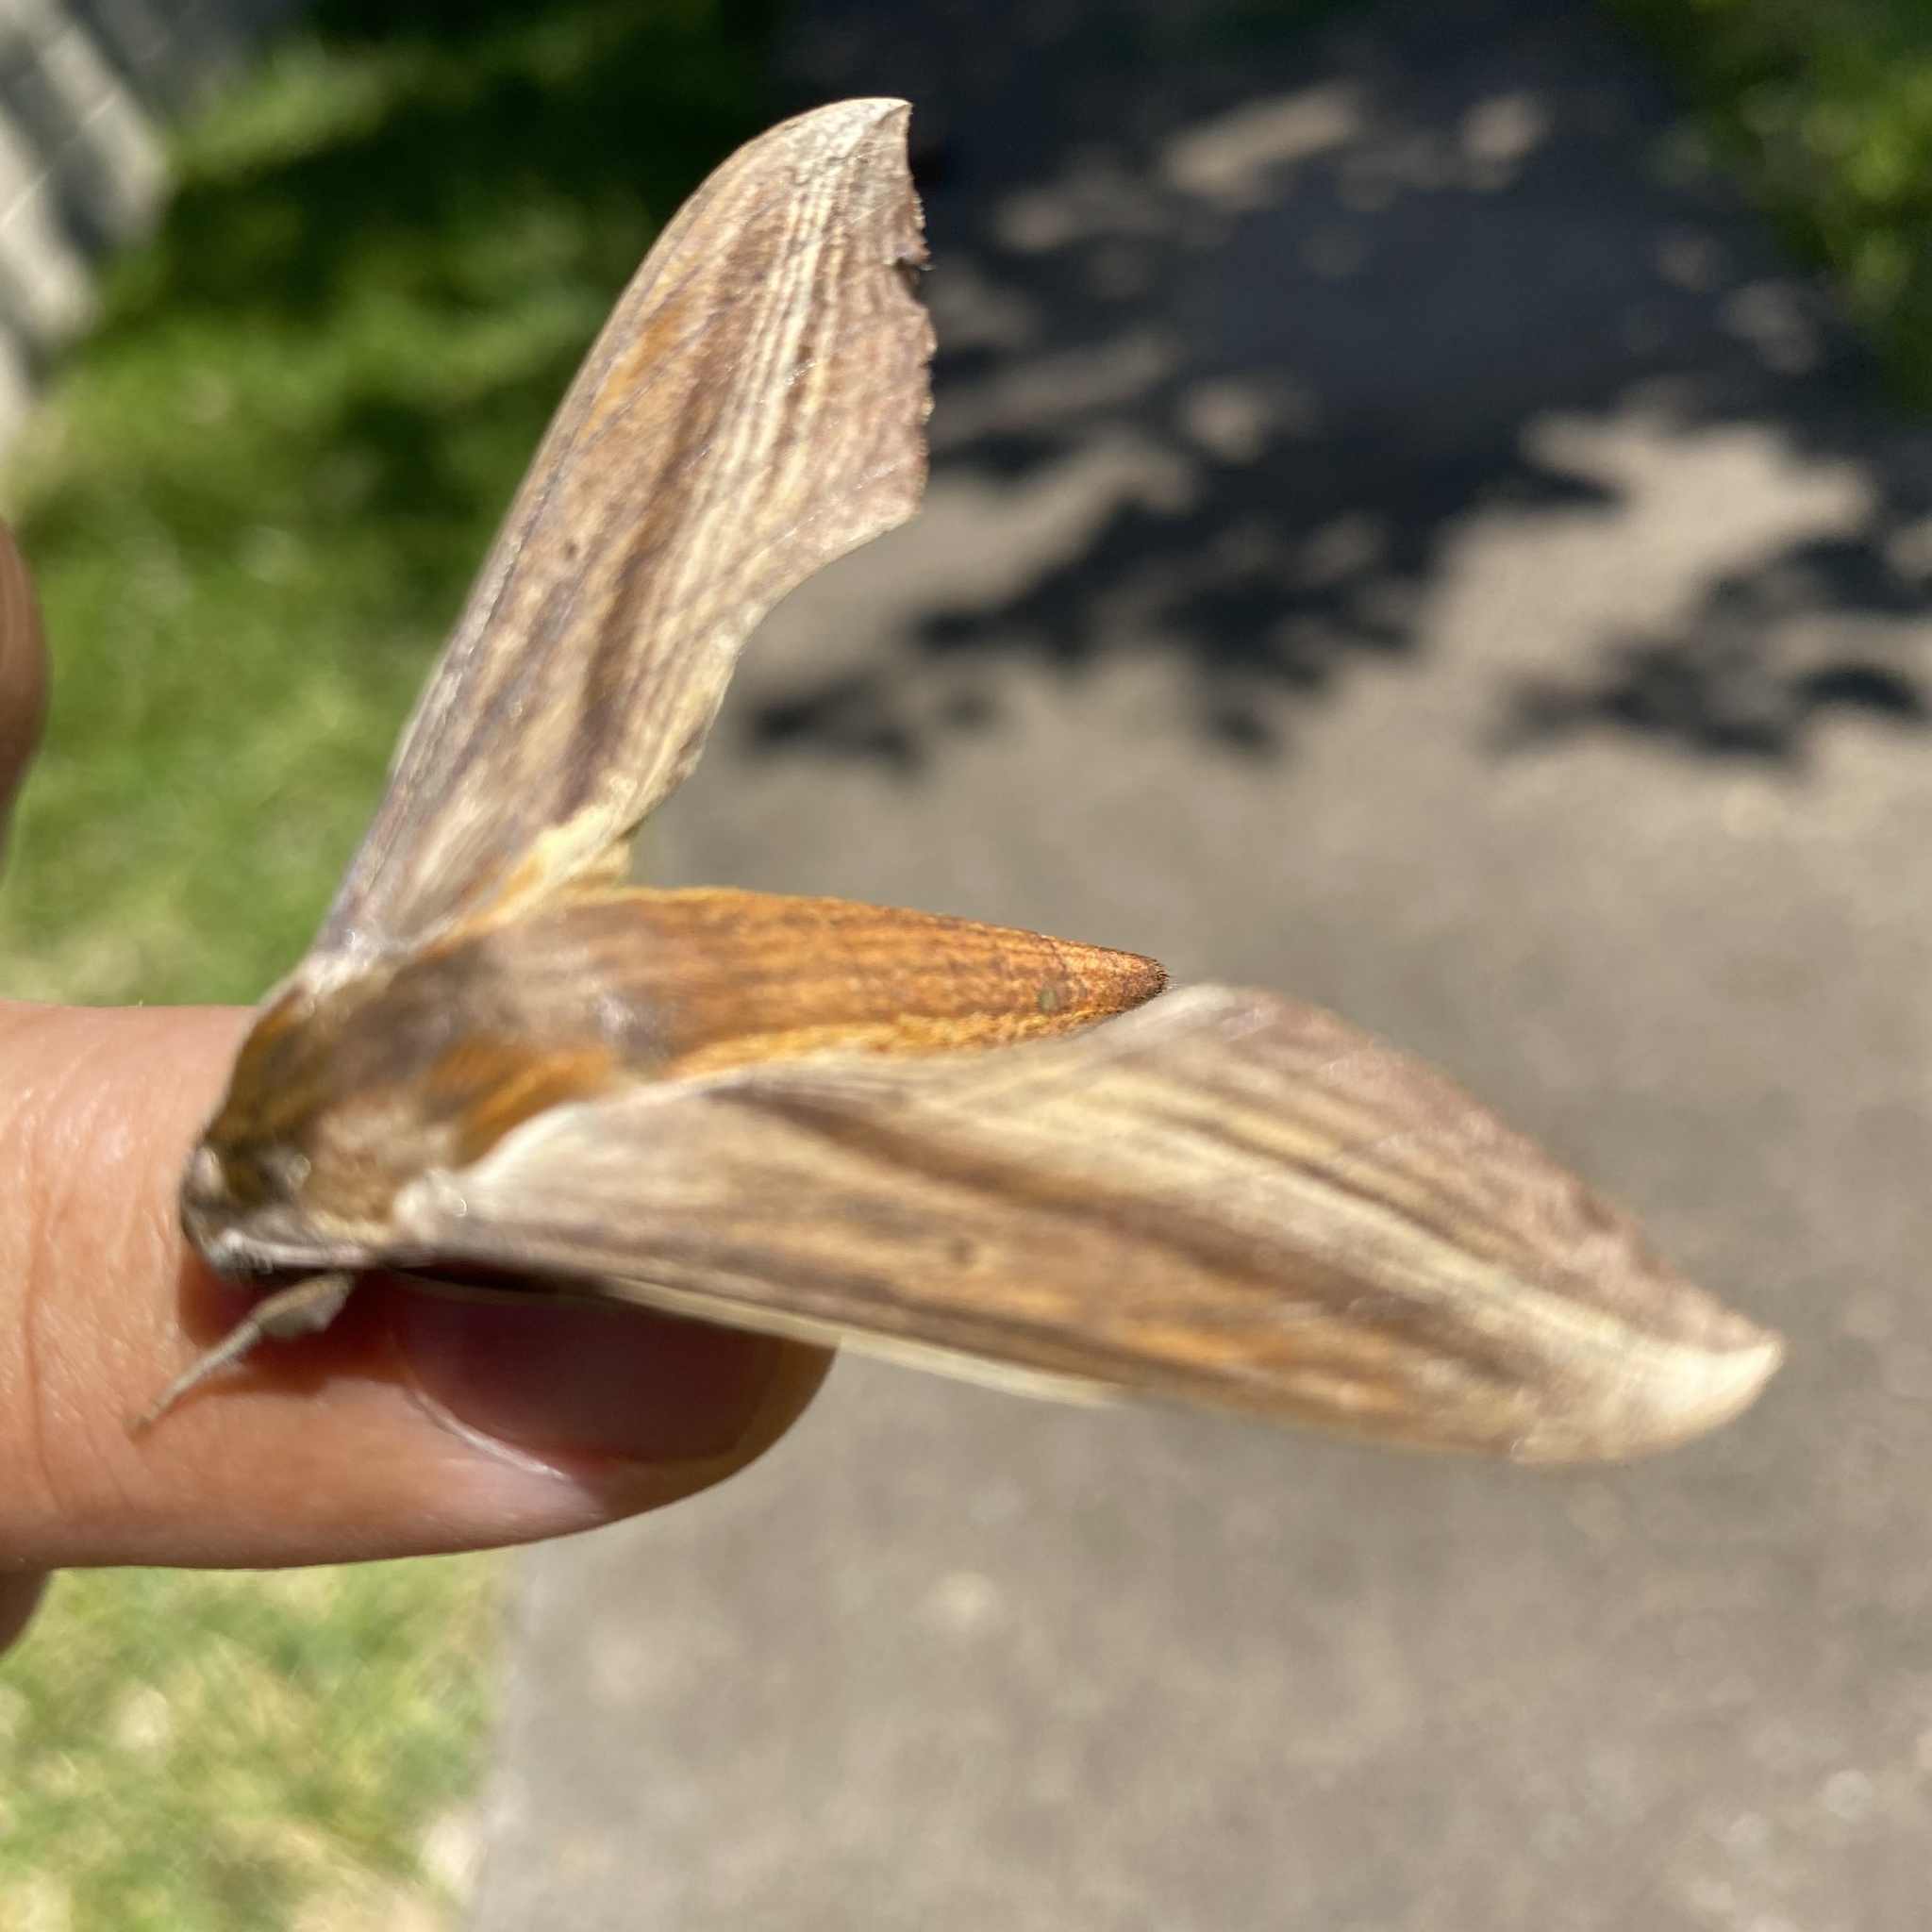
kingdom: Animalia
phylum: Arthropoda
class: Insecta
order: Lepidoptera
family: Sphingidae
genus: Xylophanes
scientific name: Xylophanes tersa
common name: Tersa sphinx
